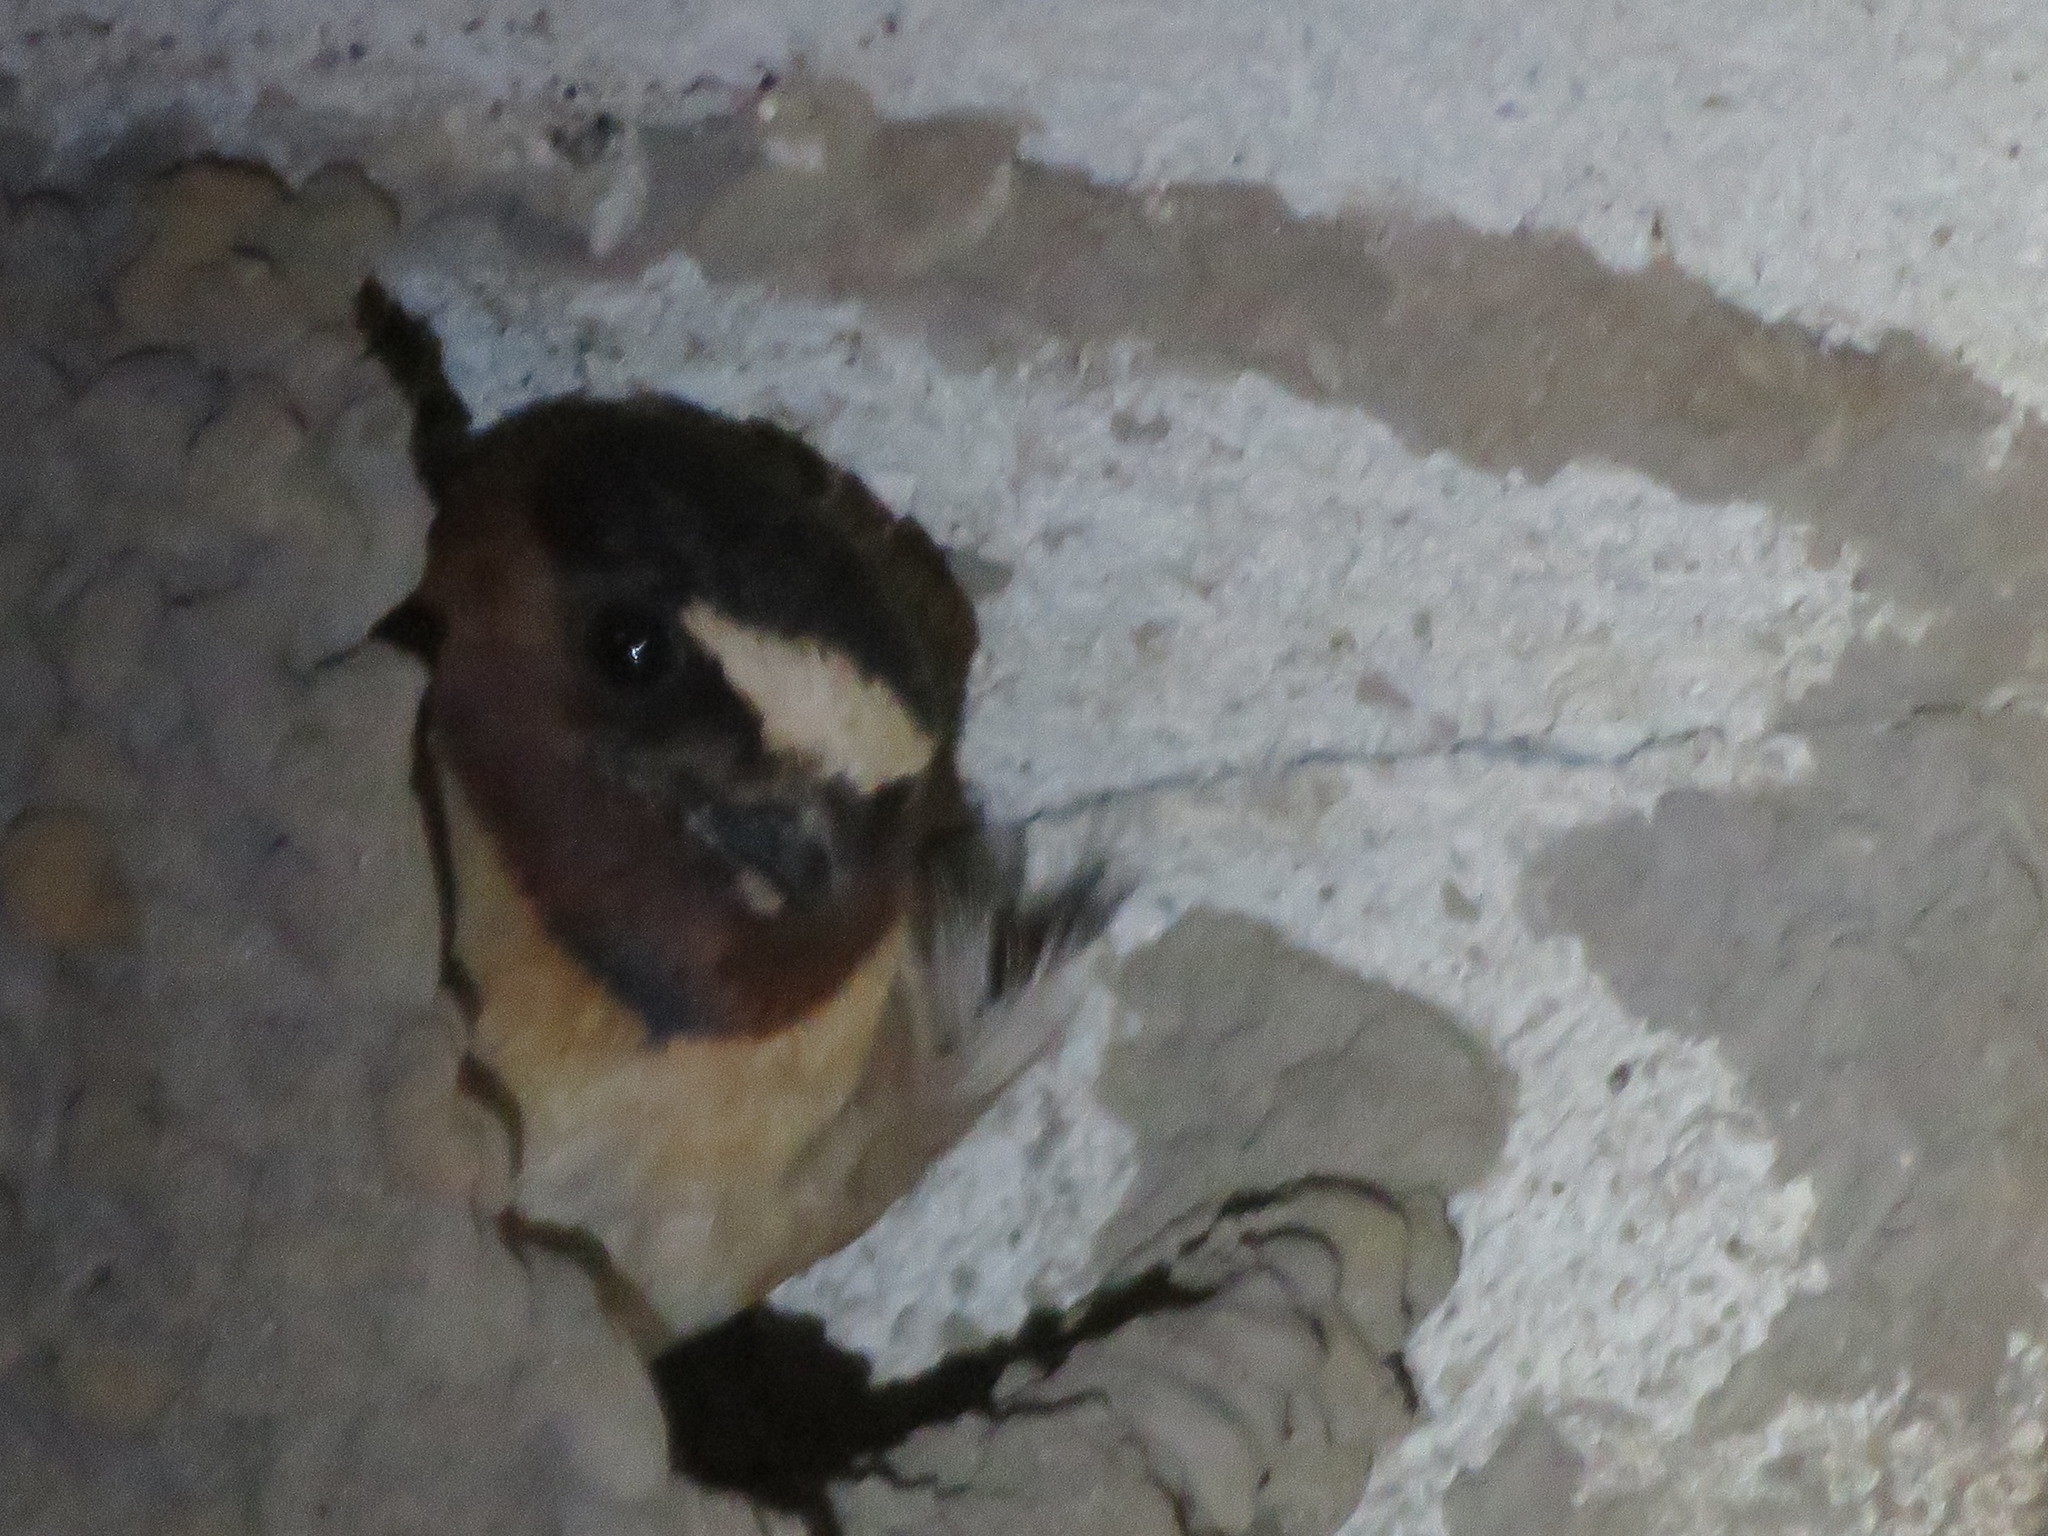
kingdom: Animalia
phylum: Chordata
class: Aves
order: Passeriformes
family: Hirundinidae
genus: Petrochelidon
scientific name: Petrochelidon pyrrhonota
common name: American cliff swallow
